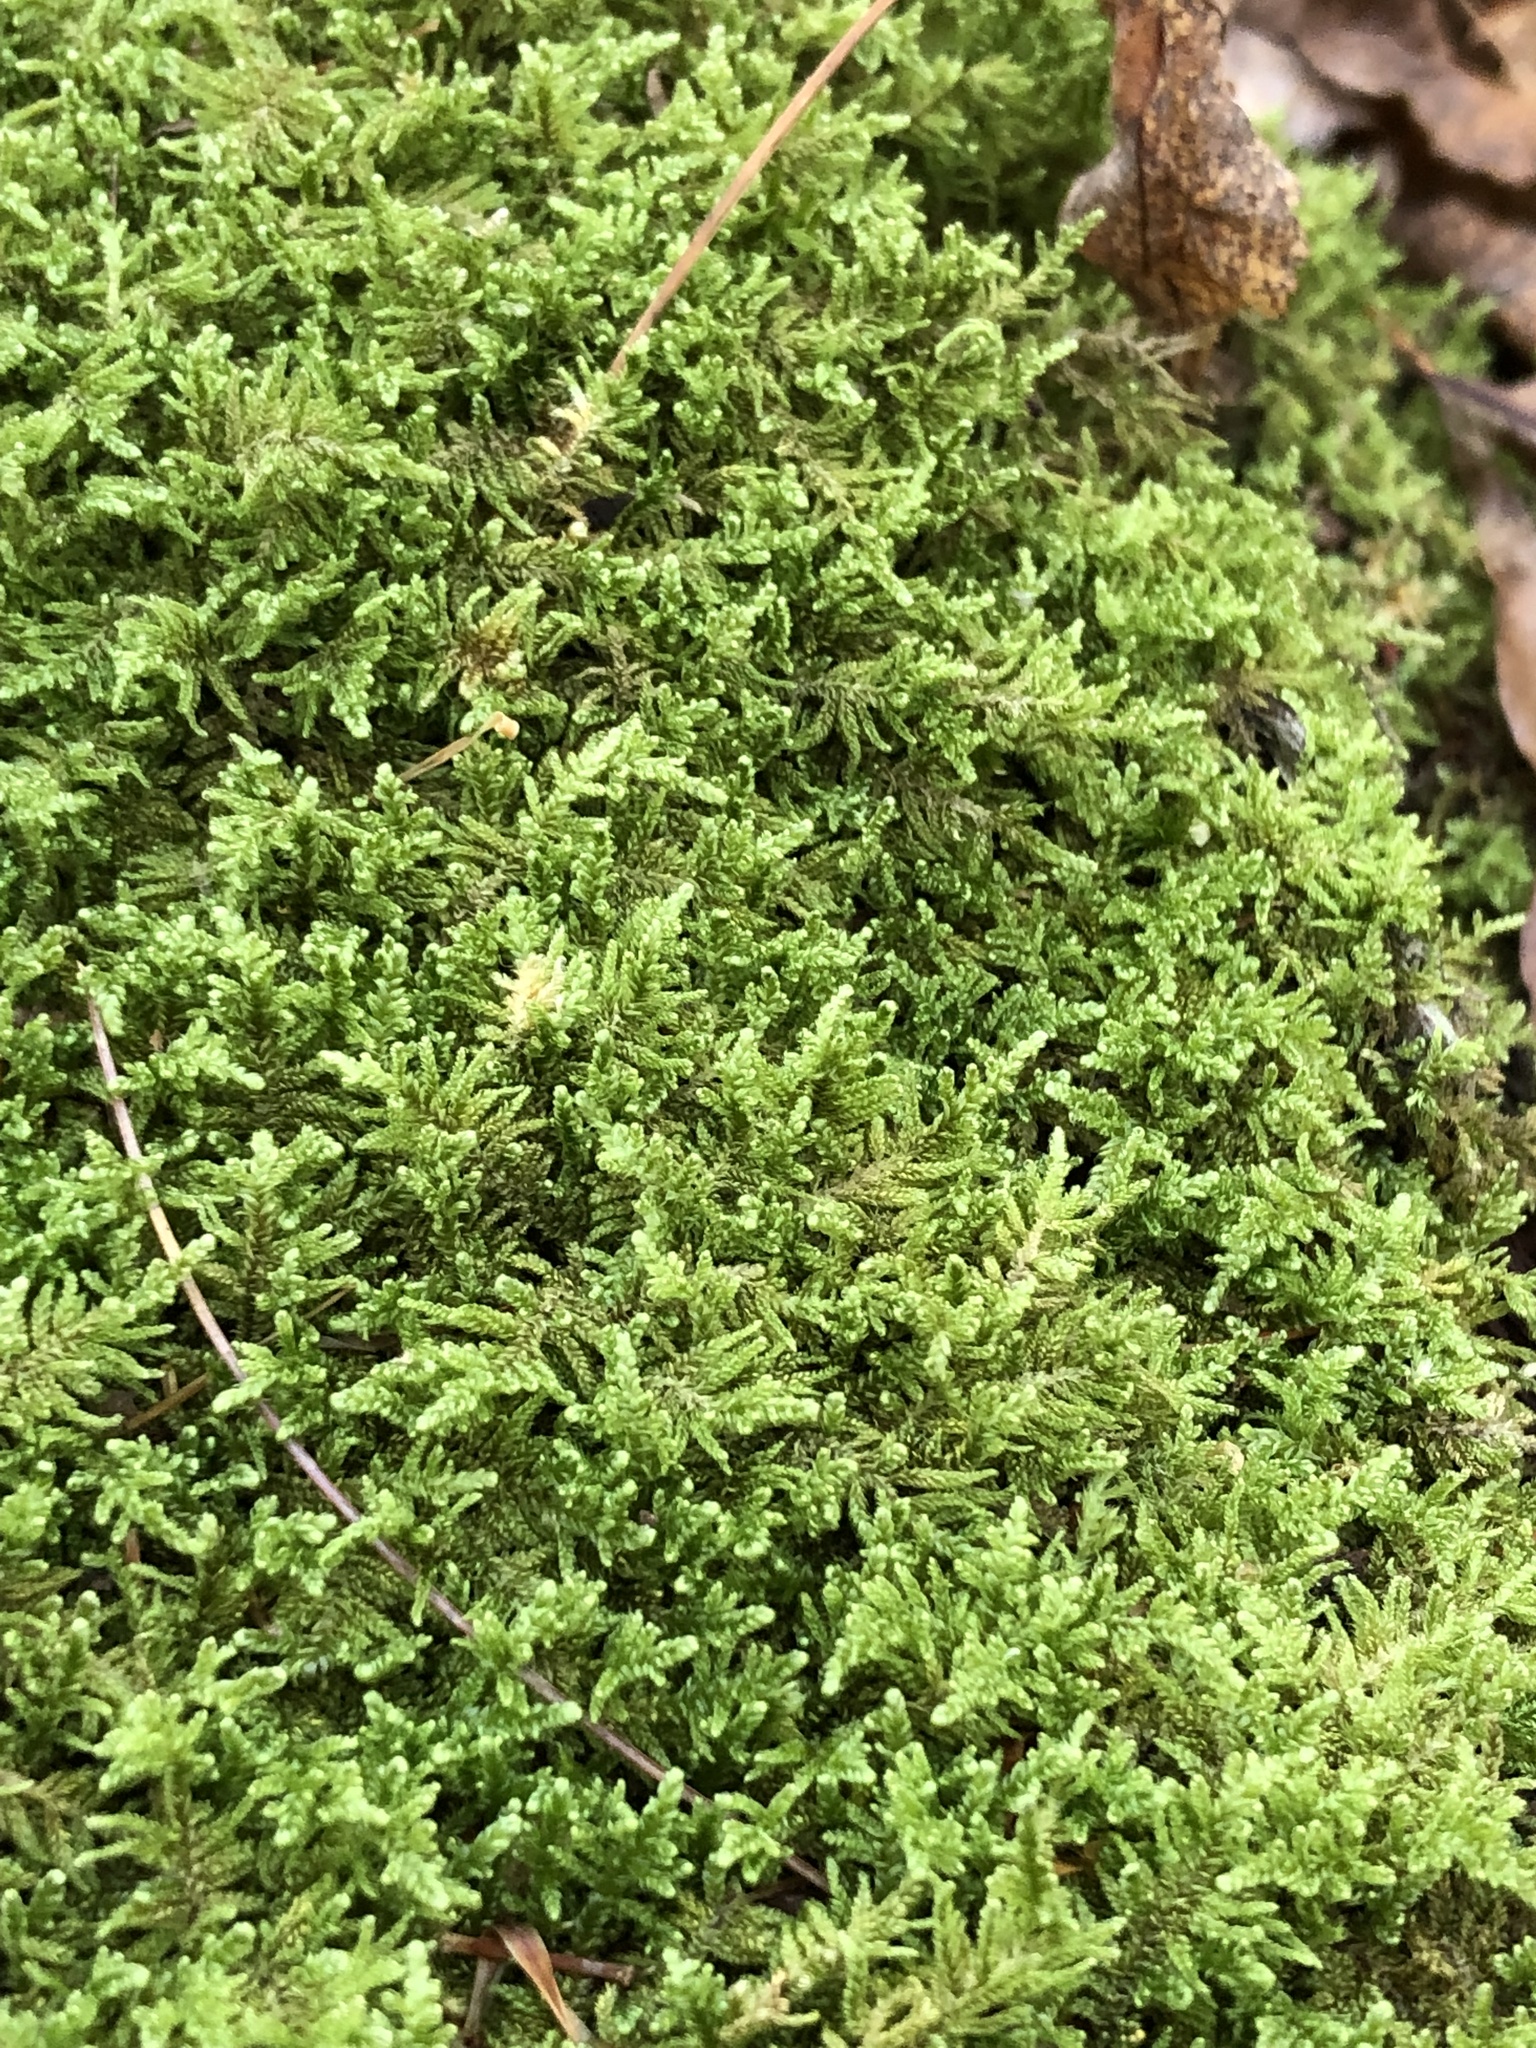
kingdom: Plantae
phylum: Bryophyta
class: Bryopsida
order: Hypnales
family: Callicladiaceae
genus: Callicladium
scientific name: Callicladium imponens
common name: Brocade moss
